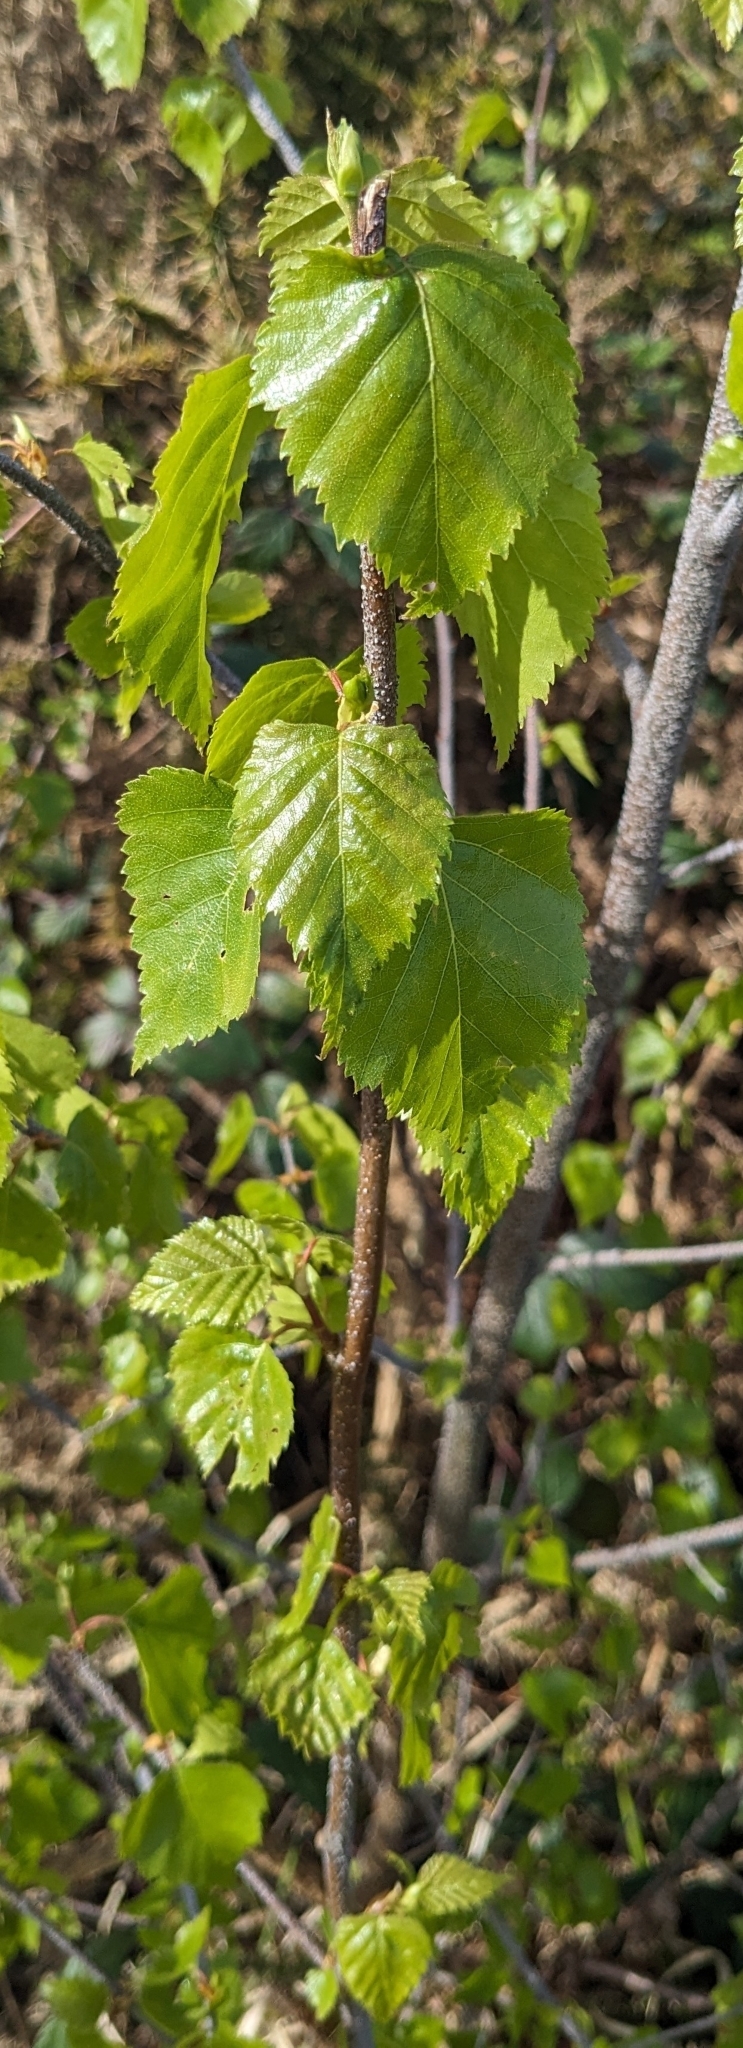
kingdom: Plantae
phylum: Tracheophyta
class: Magnoliopsida
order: Fagales
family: Betulaceae
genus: Betula
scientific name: Betula pendula
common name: Silver birch
